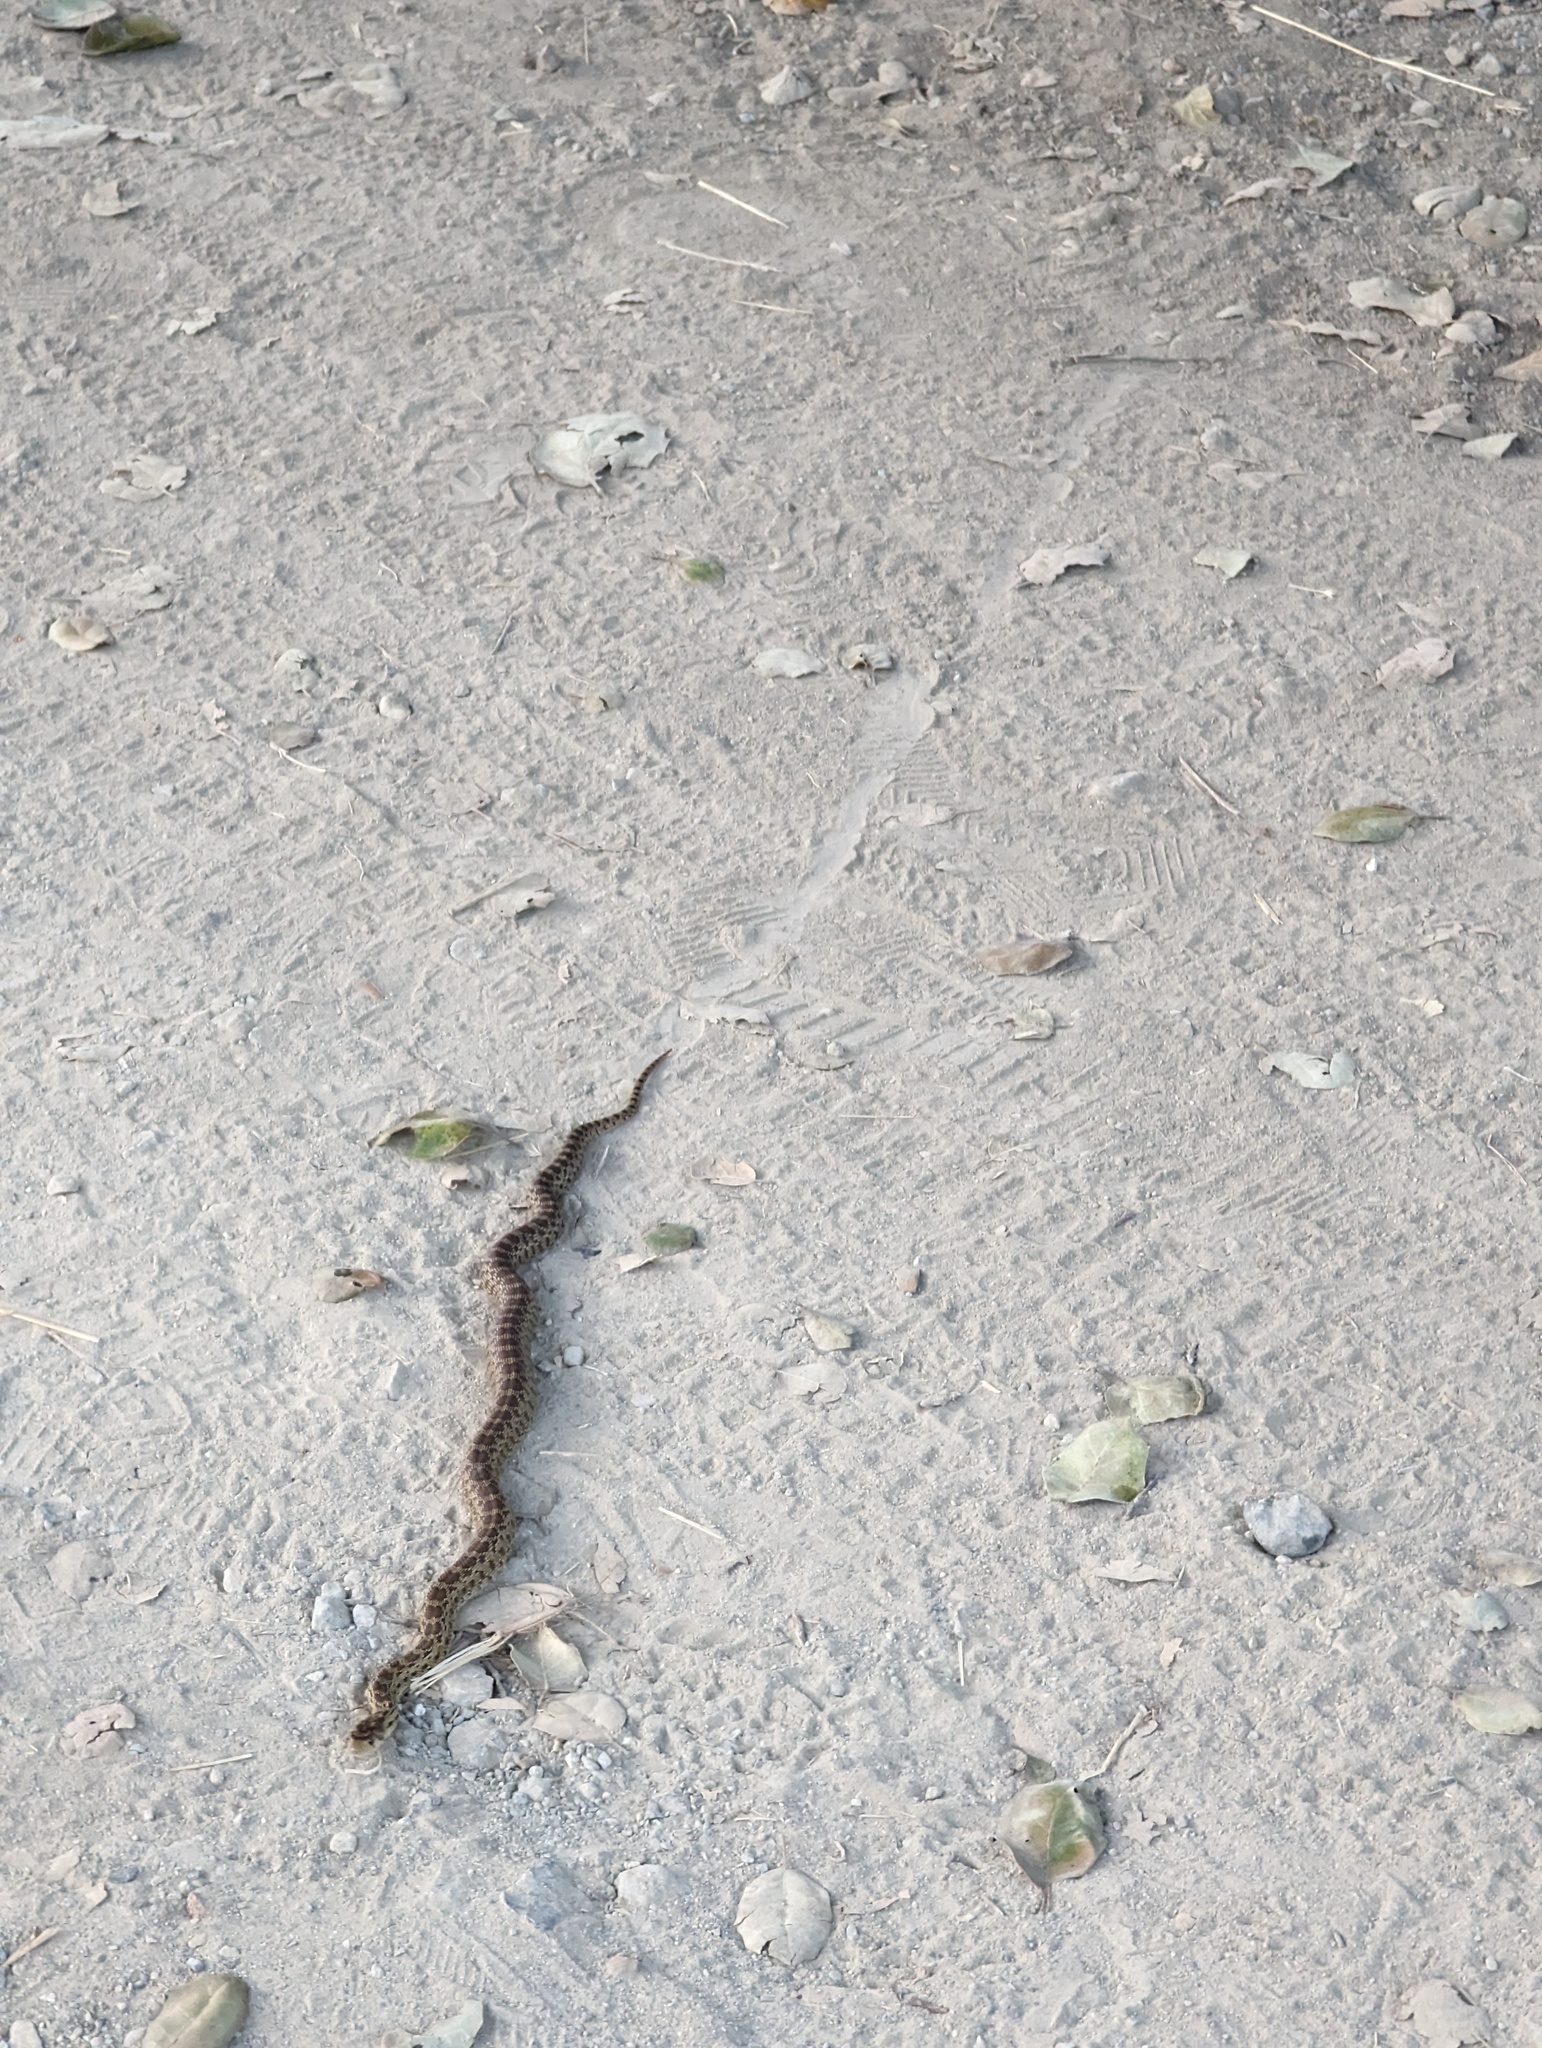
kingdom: Animalia
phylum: Chordata
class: Squamata
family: Colubridae
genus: Pituophis
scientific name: Pituophis catenifer
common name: Gopher snake
